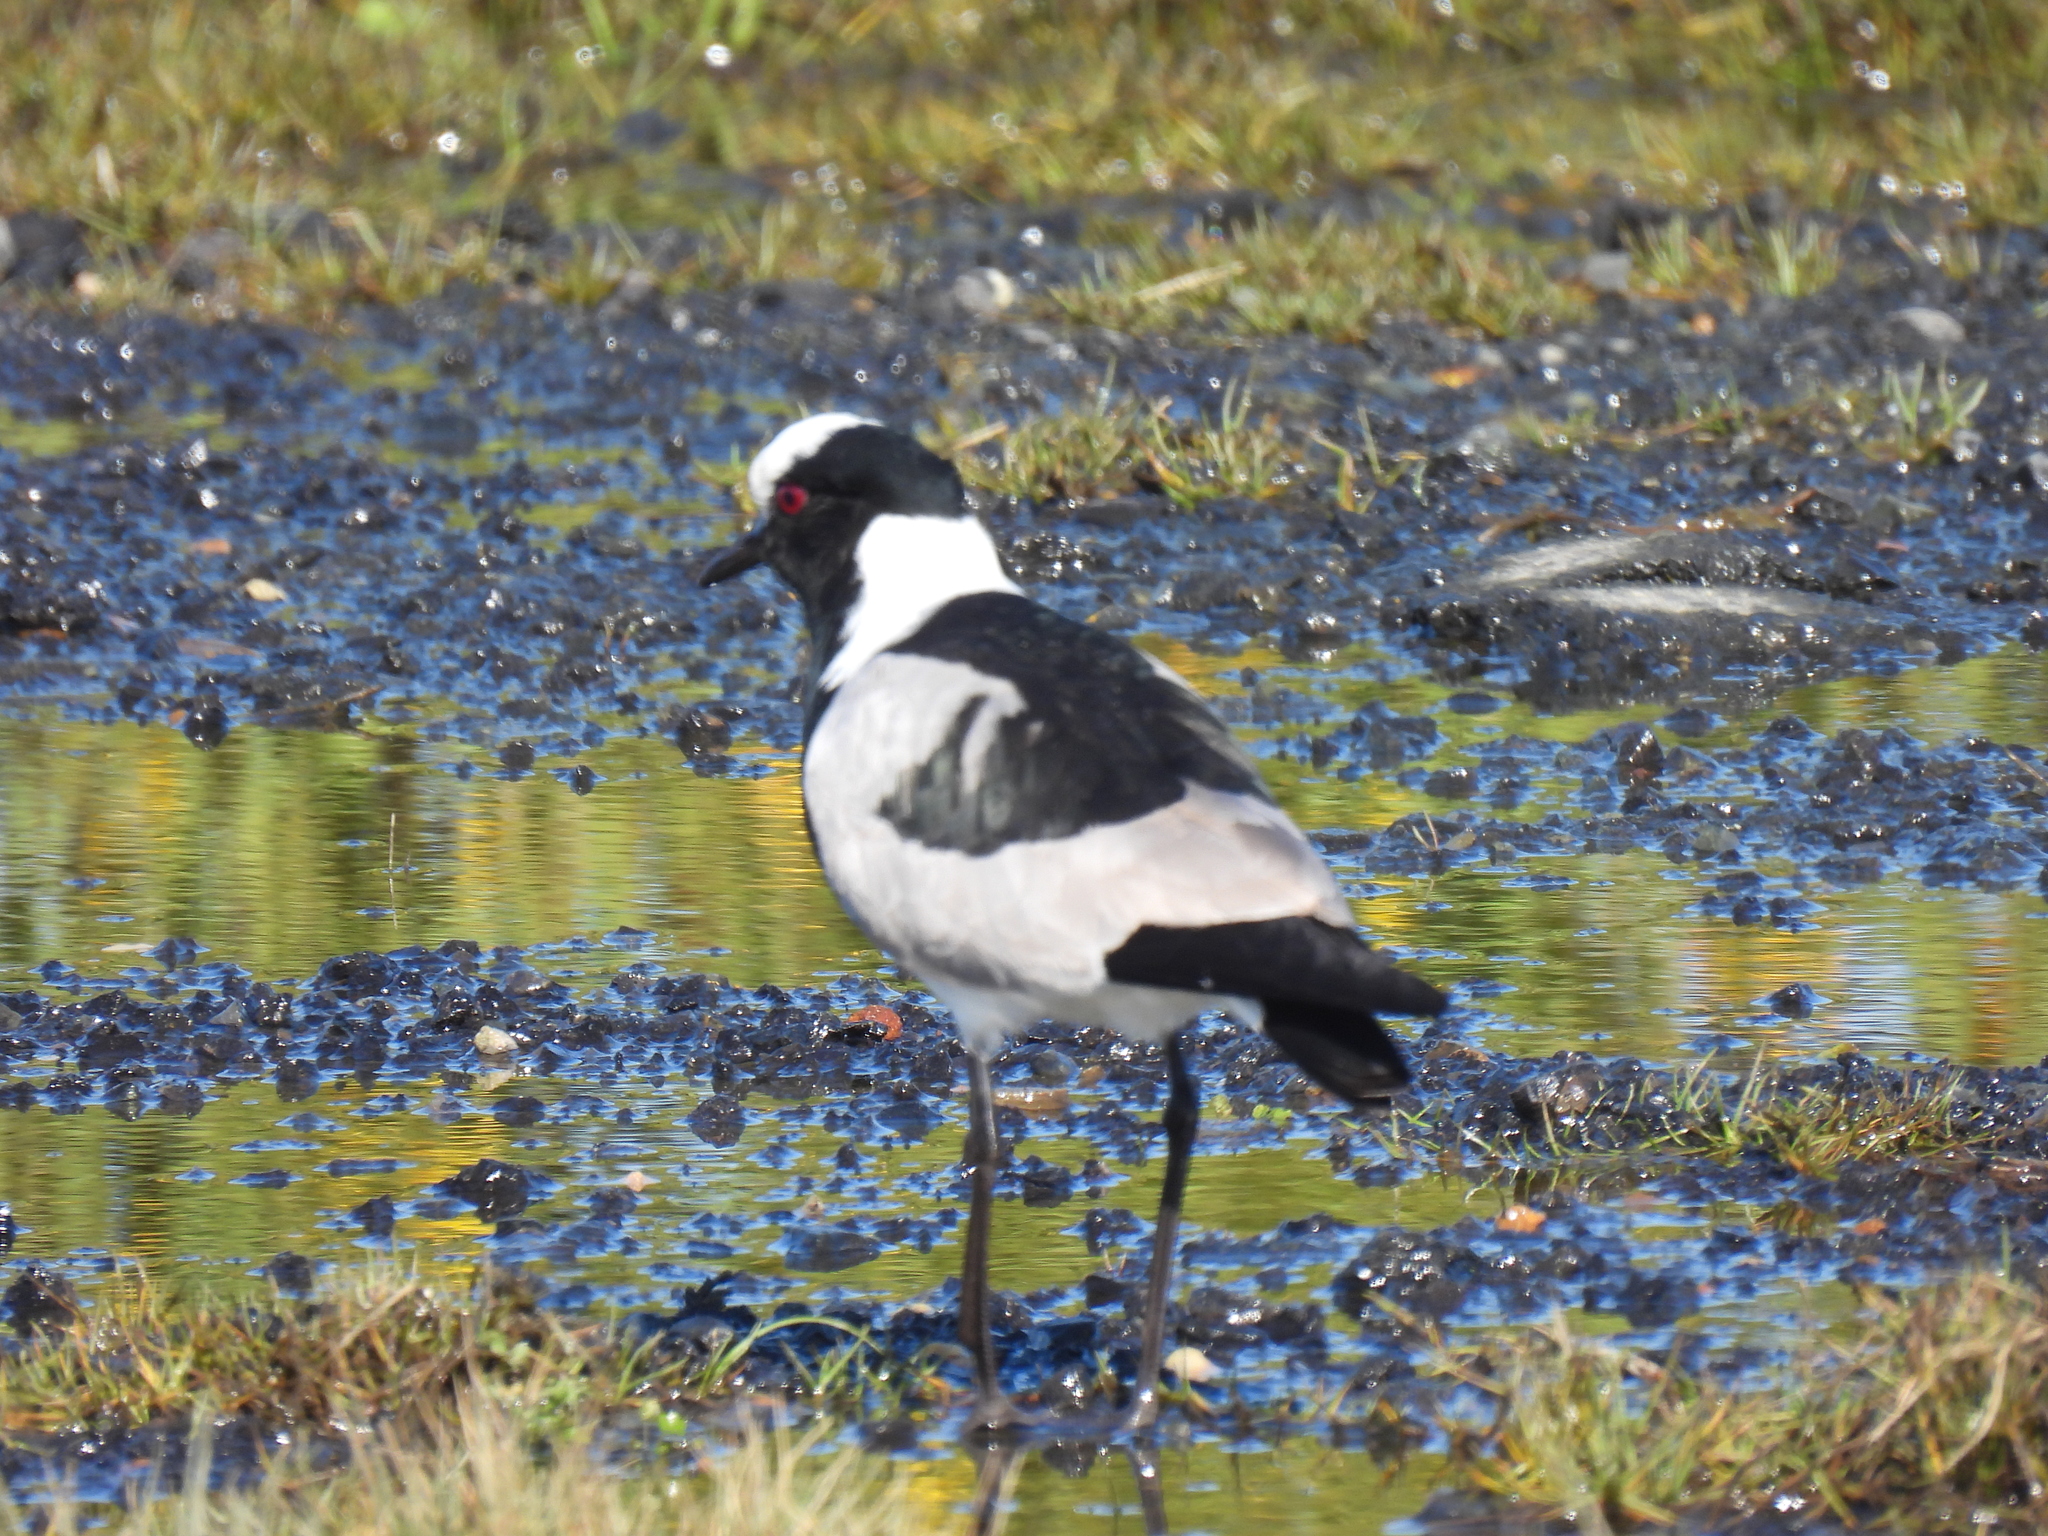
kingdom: Animalia
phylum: Chordata
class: Aves
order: Charadriiformes
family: Charadriidae
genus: Vanellus
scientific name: Vanellus armatus
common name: Blacksmith lapwing
